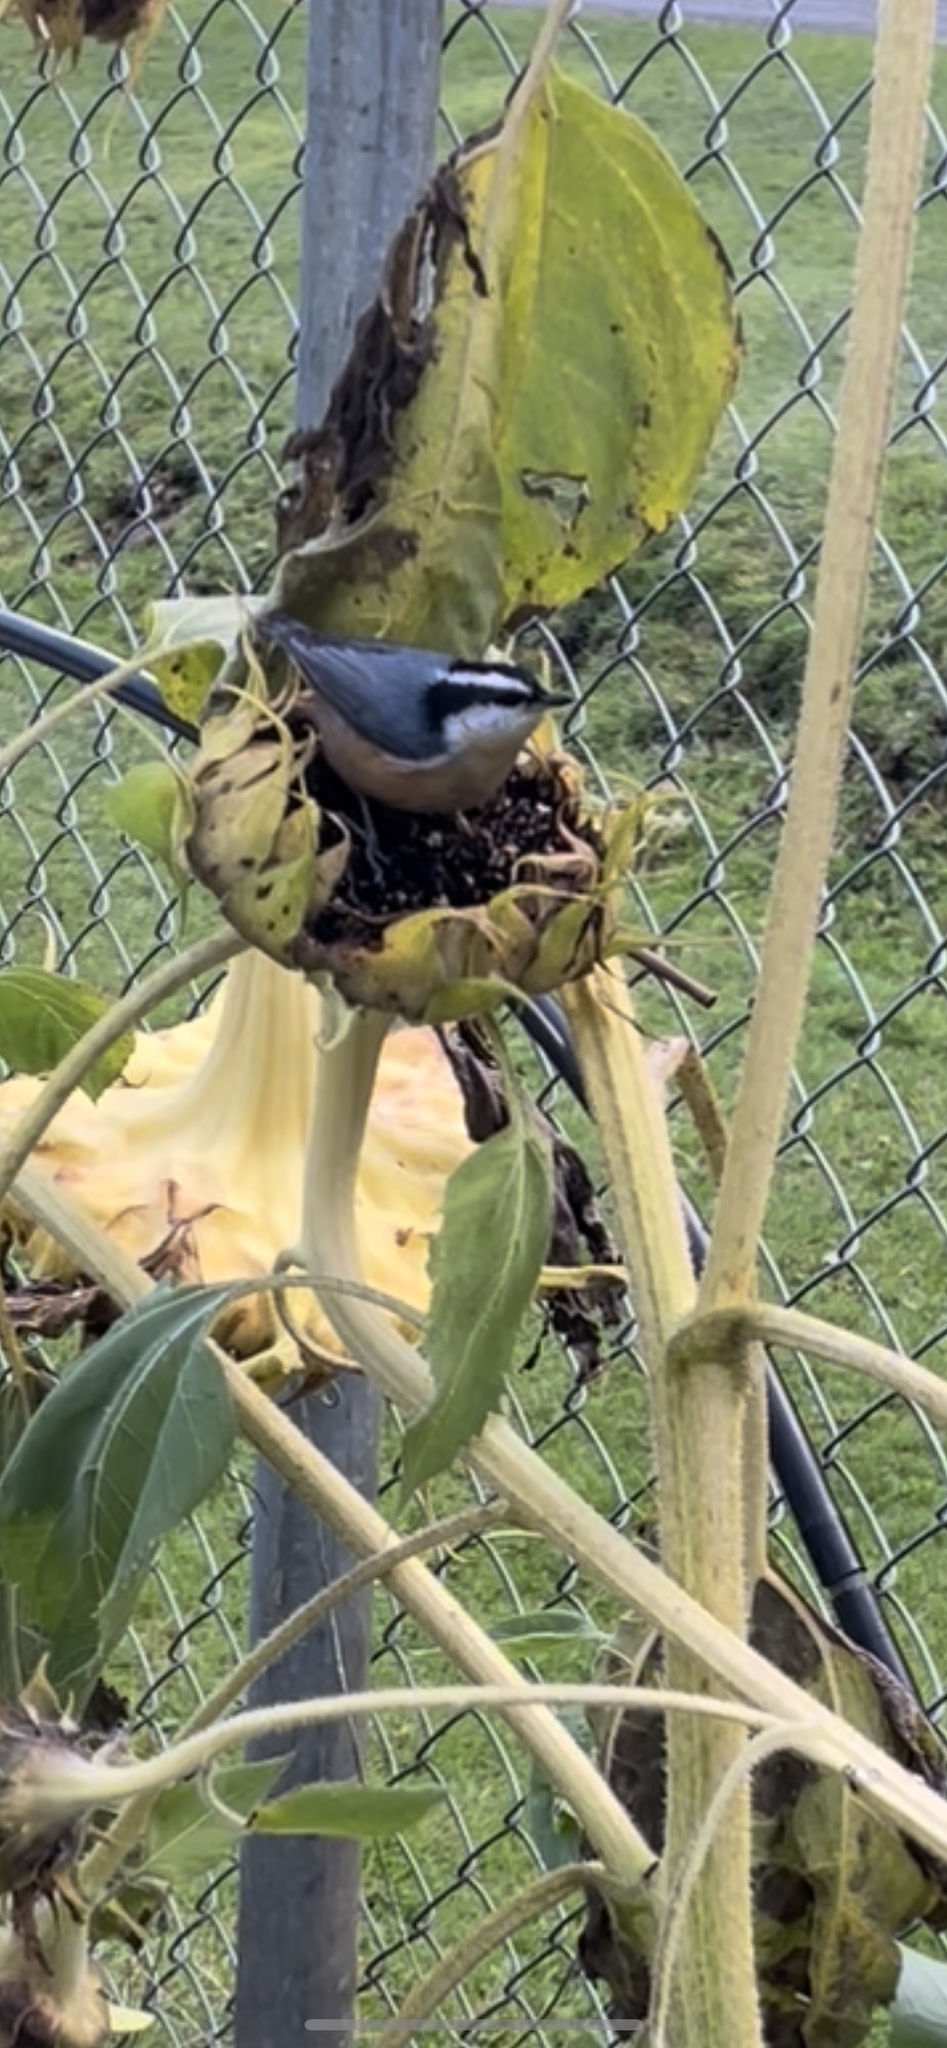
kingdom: Animalia
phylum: Chordata
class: Aves
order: Passeriformes
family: Sittidae
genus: Sitta
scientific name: Sitta canadensis
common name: Red-breasted nuthatch
